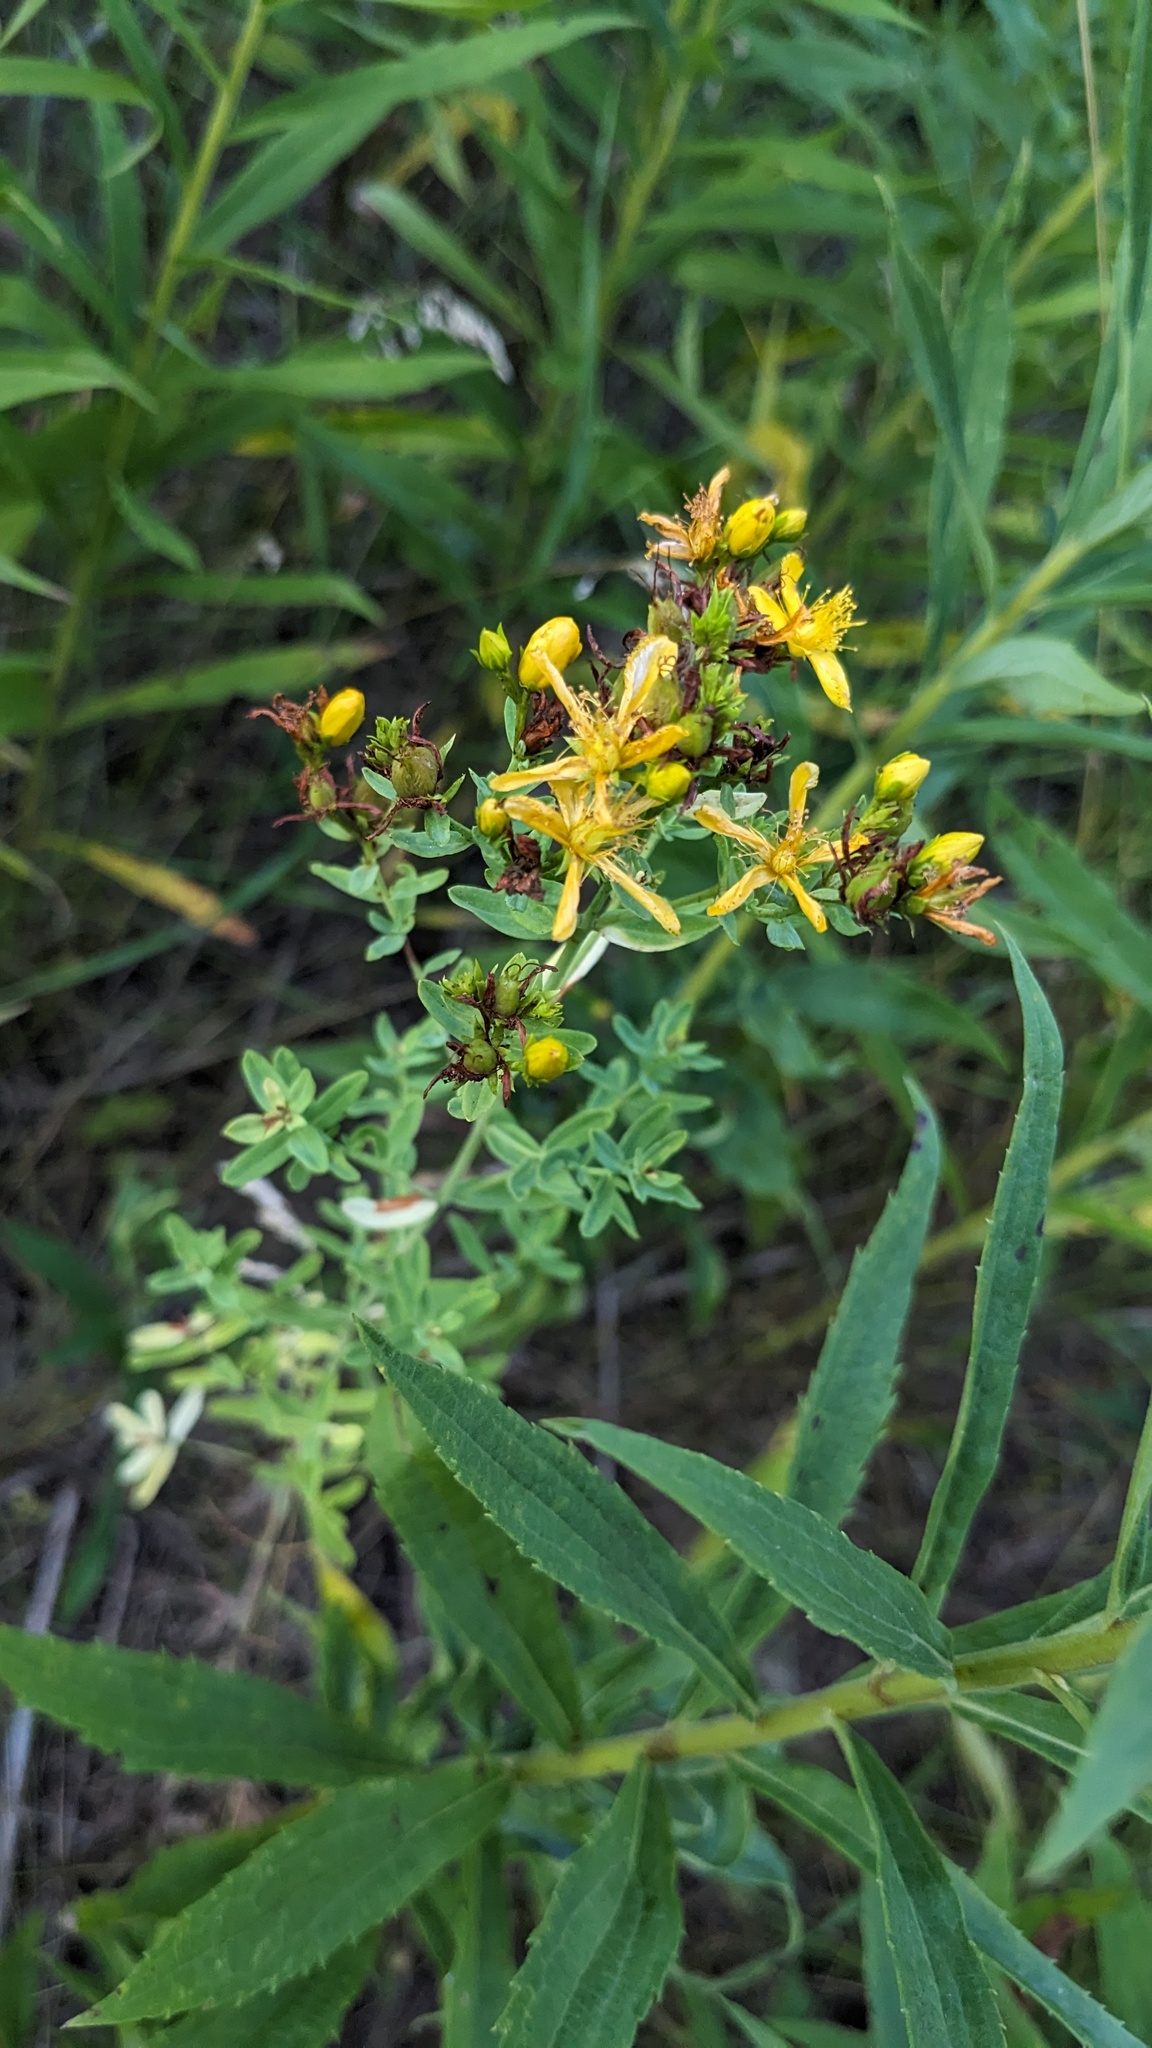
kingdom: Plantae
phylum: Tracheophyta
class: Magnoliopsida
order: Malpighiales
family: Hypericaceae
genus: Hypericum
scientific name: Hypericum perforatum
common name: Common st. johnswort
